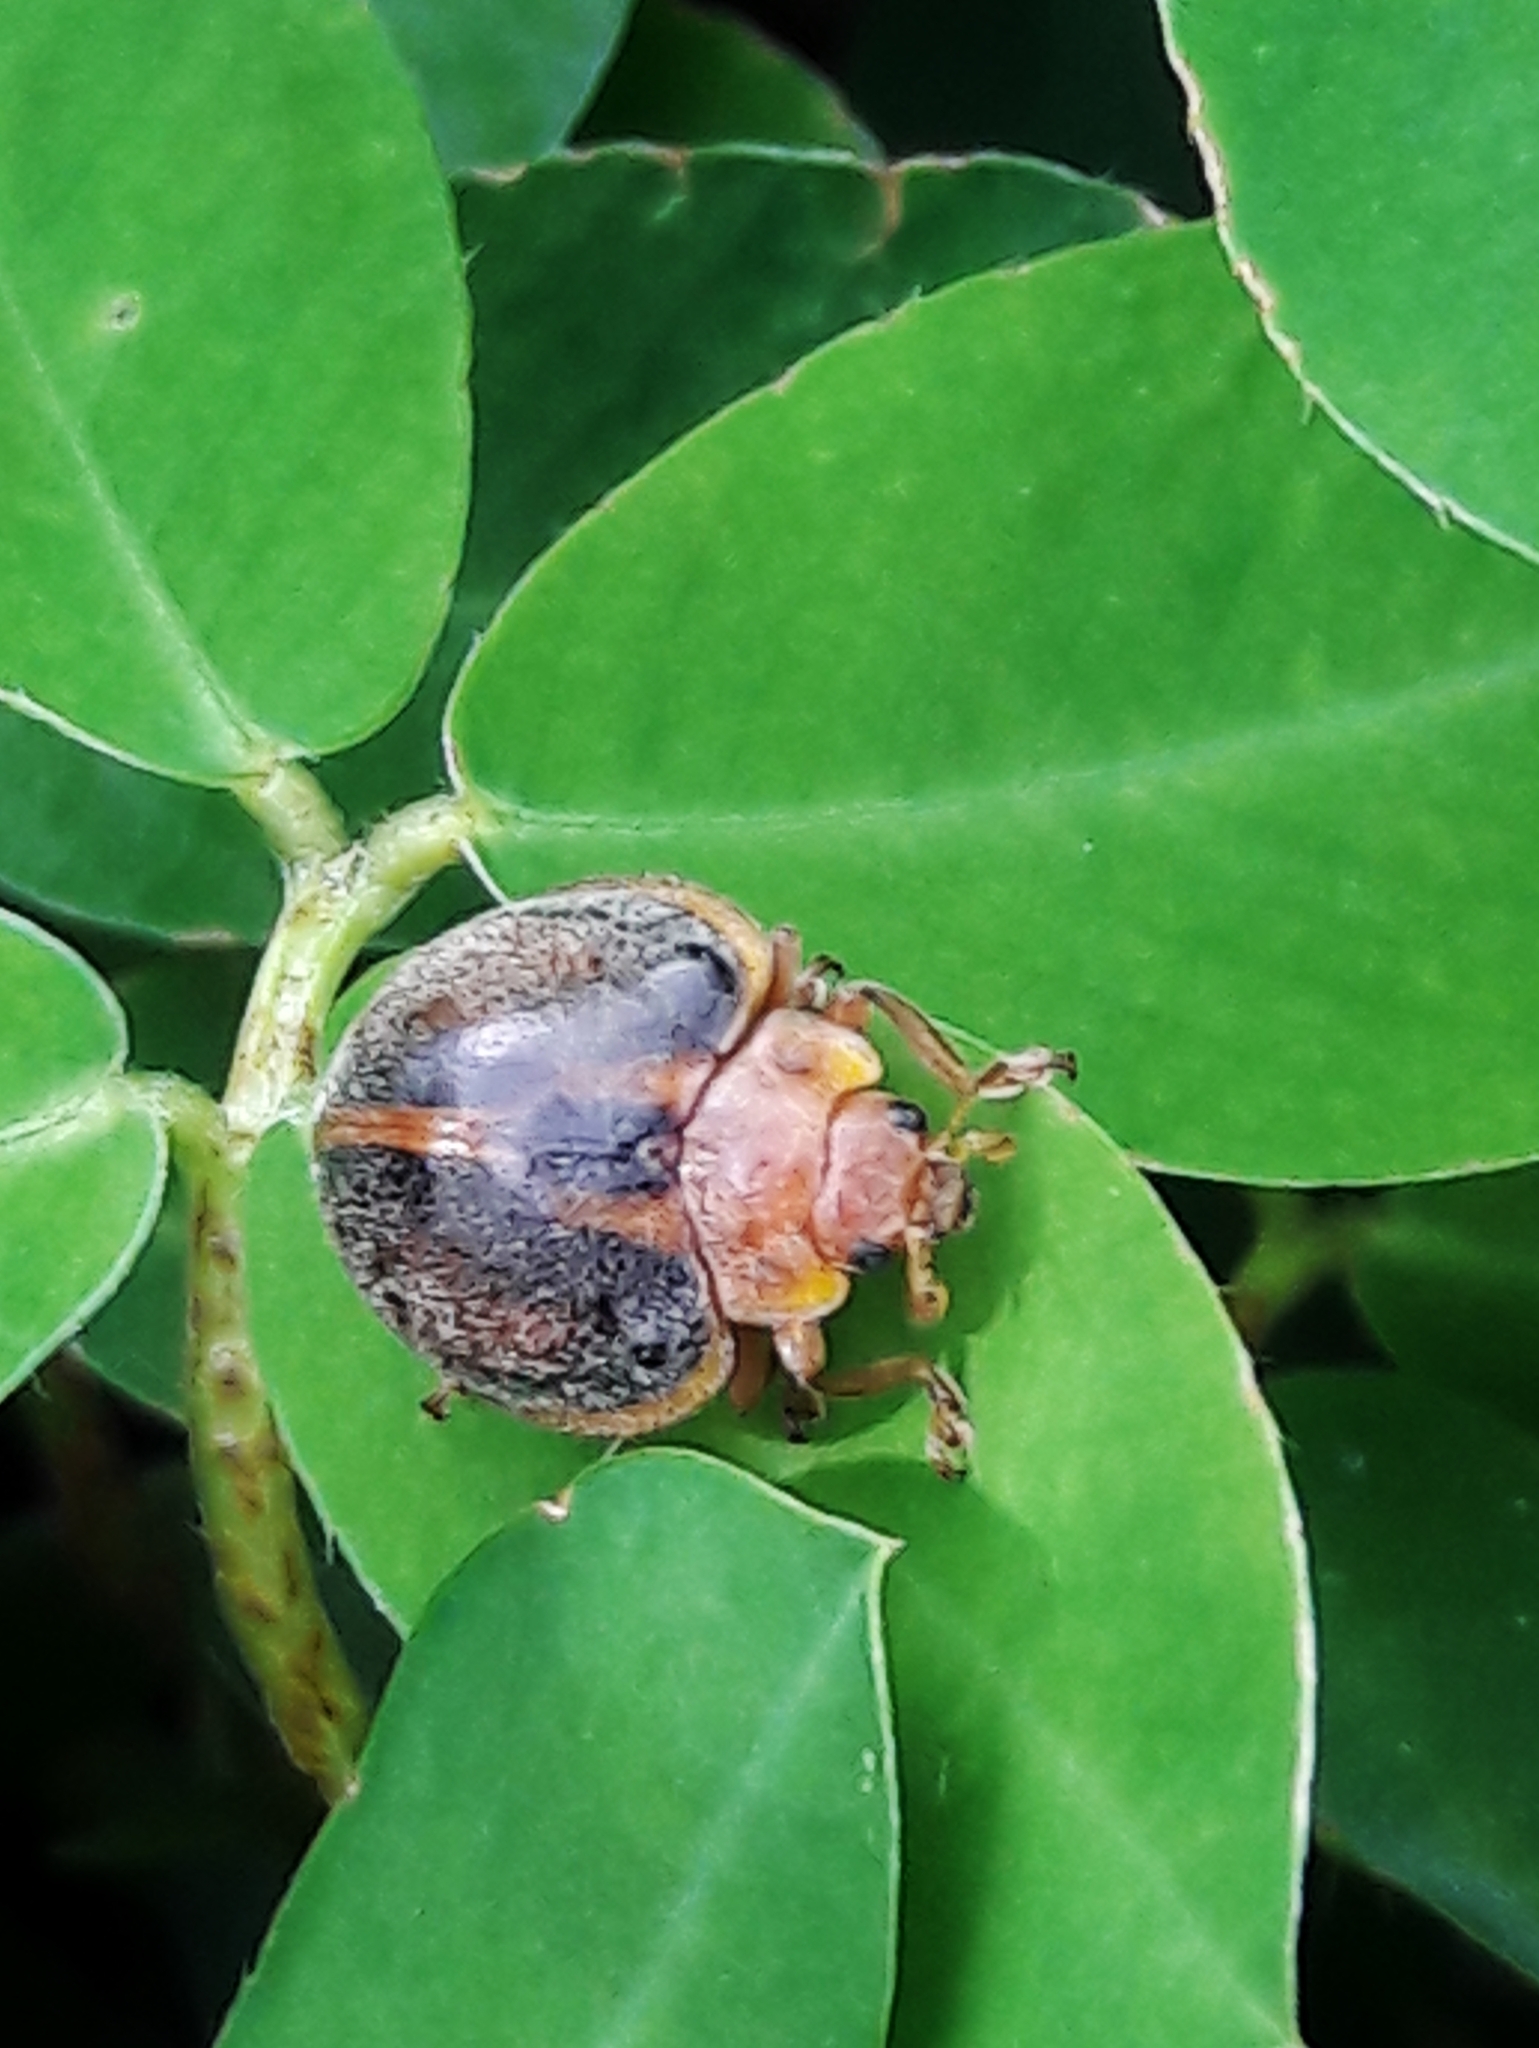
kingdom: Animalia
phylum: Arthropoda
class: Insecta
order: Coleoptera
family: Coccinellidae
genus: Epilachna
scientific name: Epilachna
